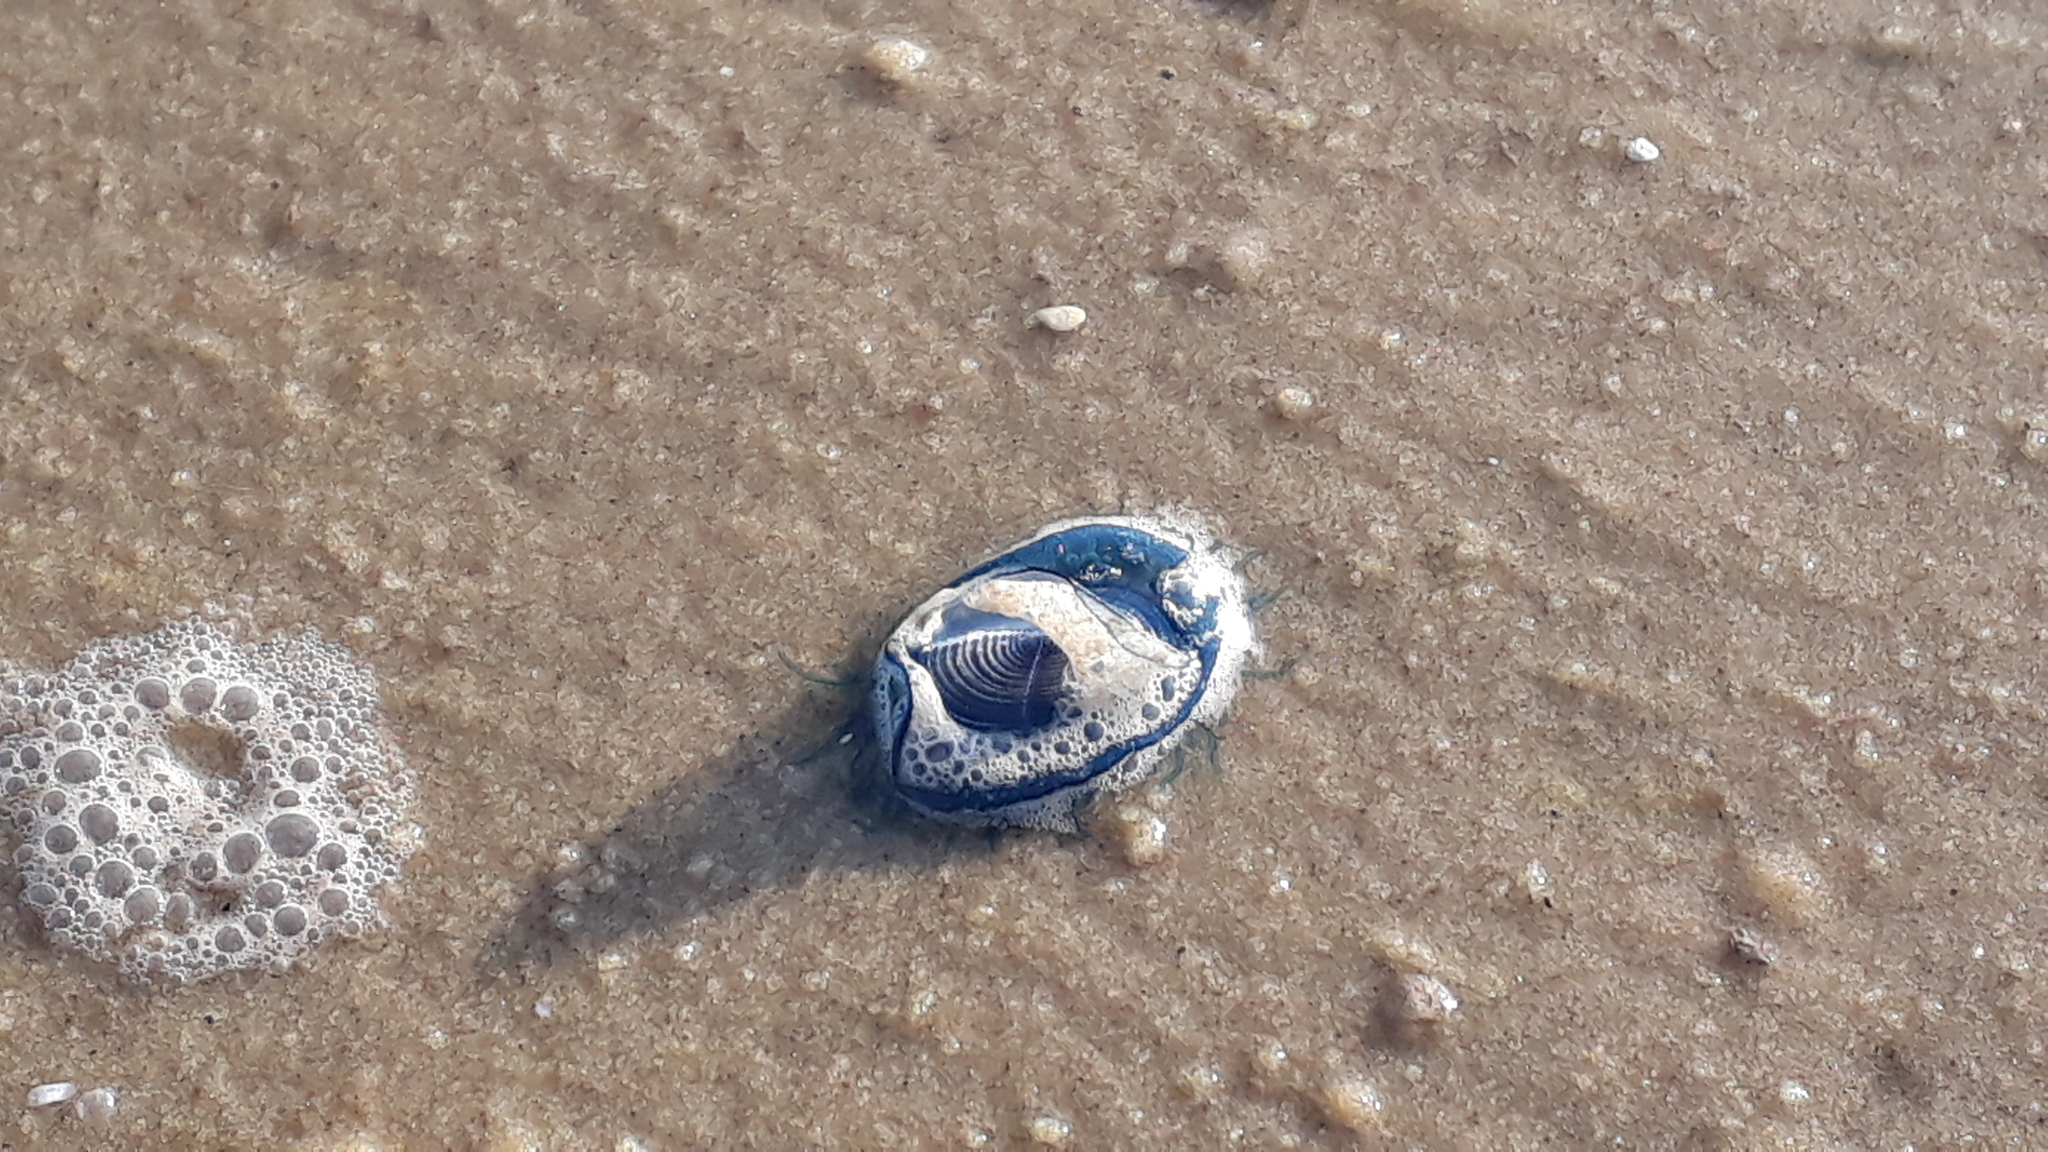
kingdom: Animalia
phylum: Cnidaria
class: Hydrozoa
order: Anthoathecata
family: Porpitidae
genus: Velella
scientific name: Velella velella
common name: By-the-wind-sailor
